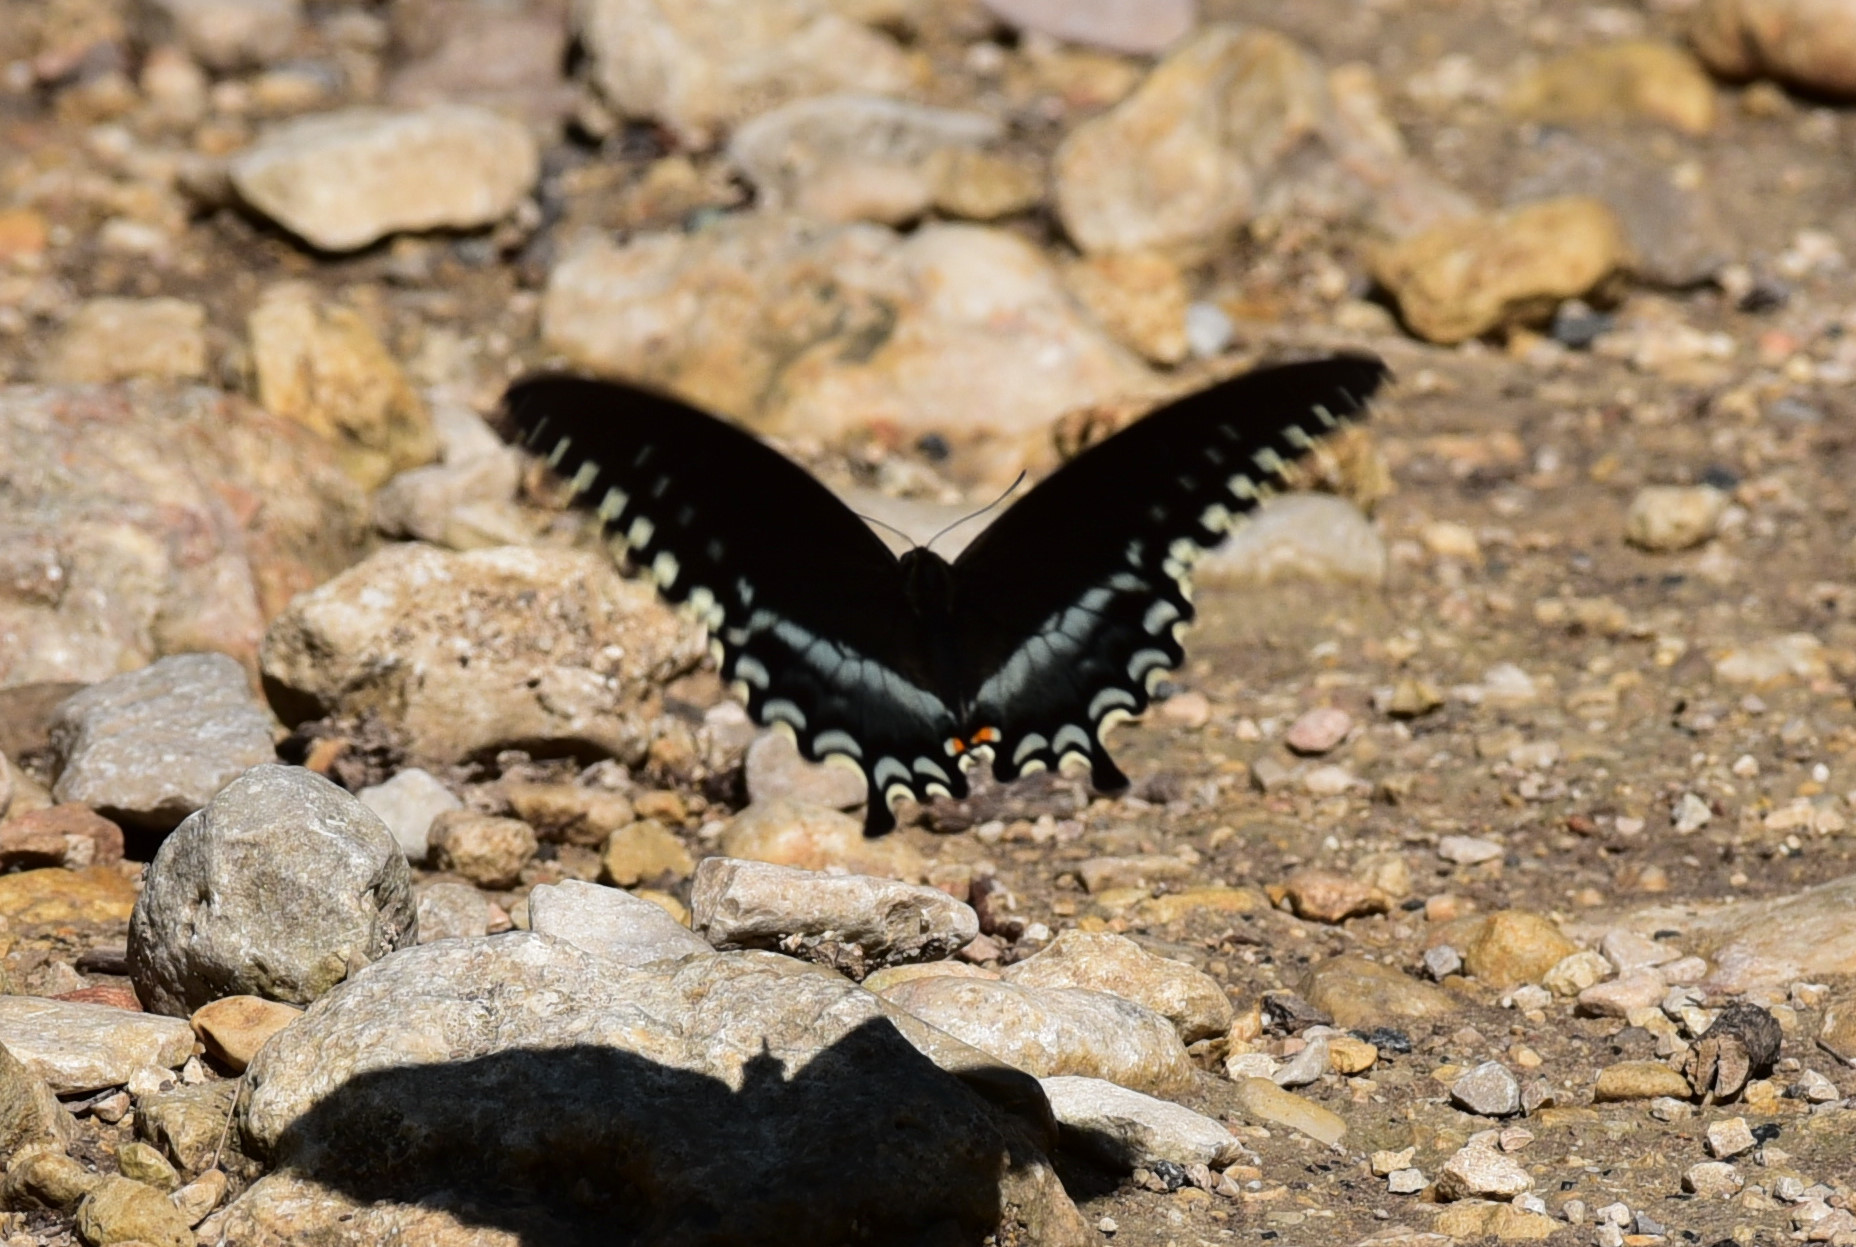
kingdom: Animalia
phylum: Arthropoda
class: Insecta
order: Lepidoptera
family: Papilionidae
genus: Papilio
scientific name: Papilio troilus
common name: Spicebush swallowtail
